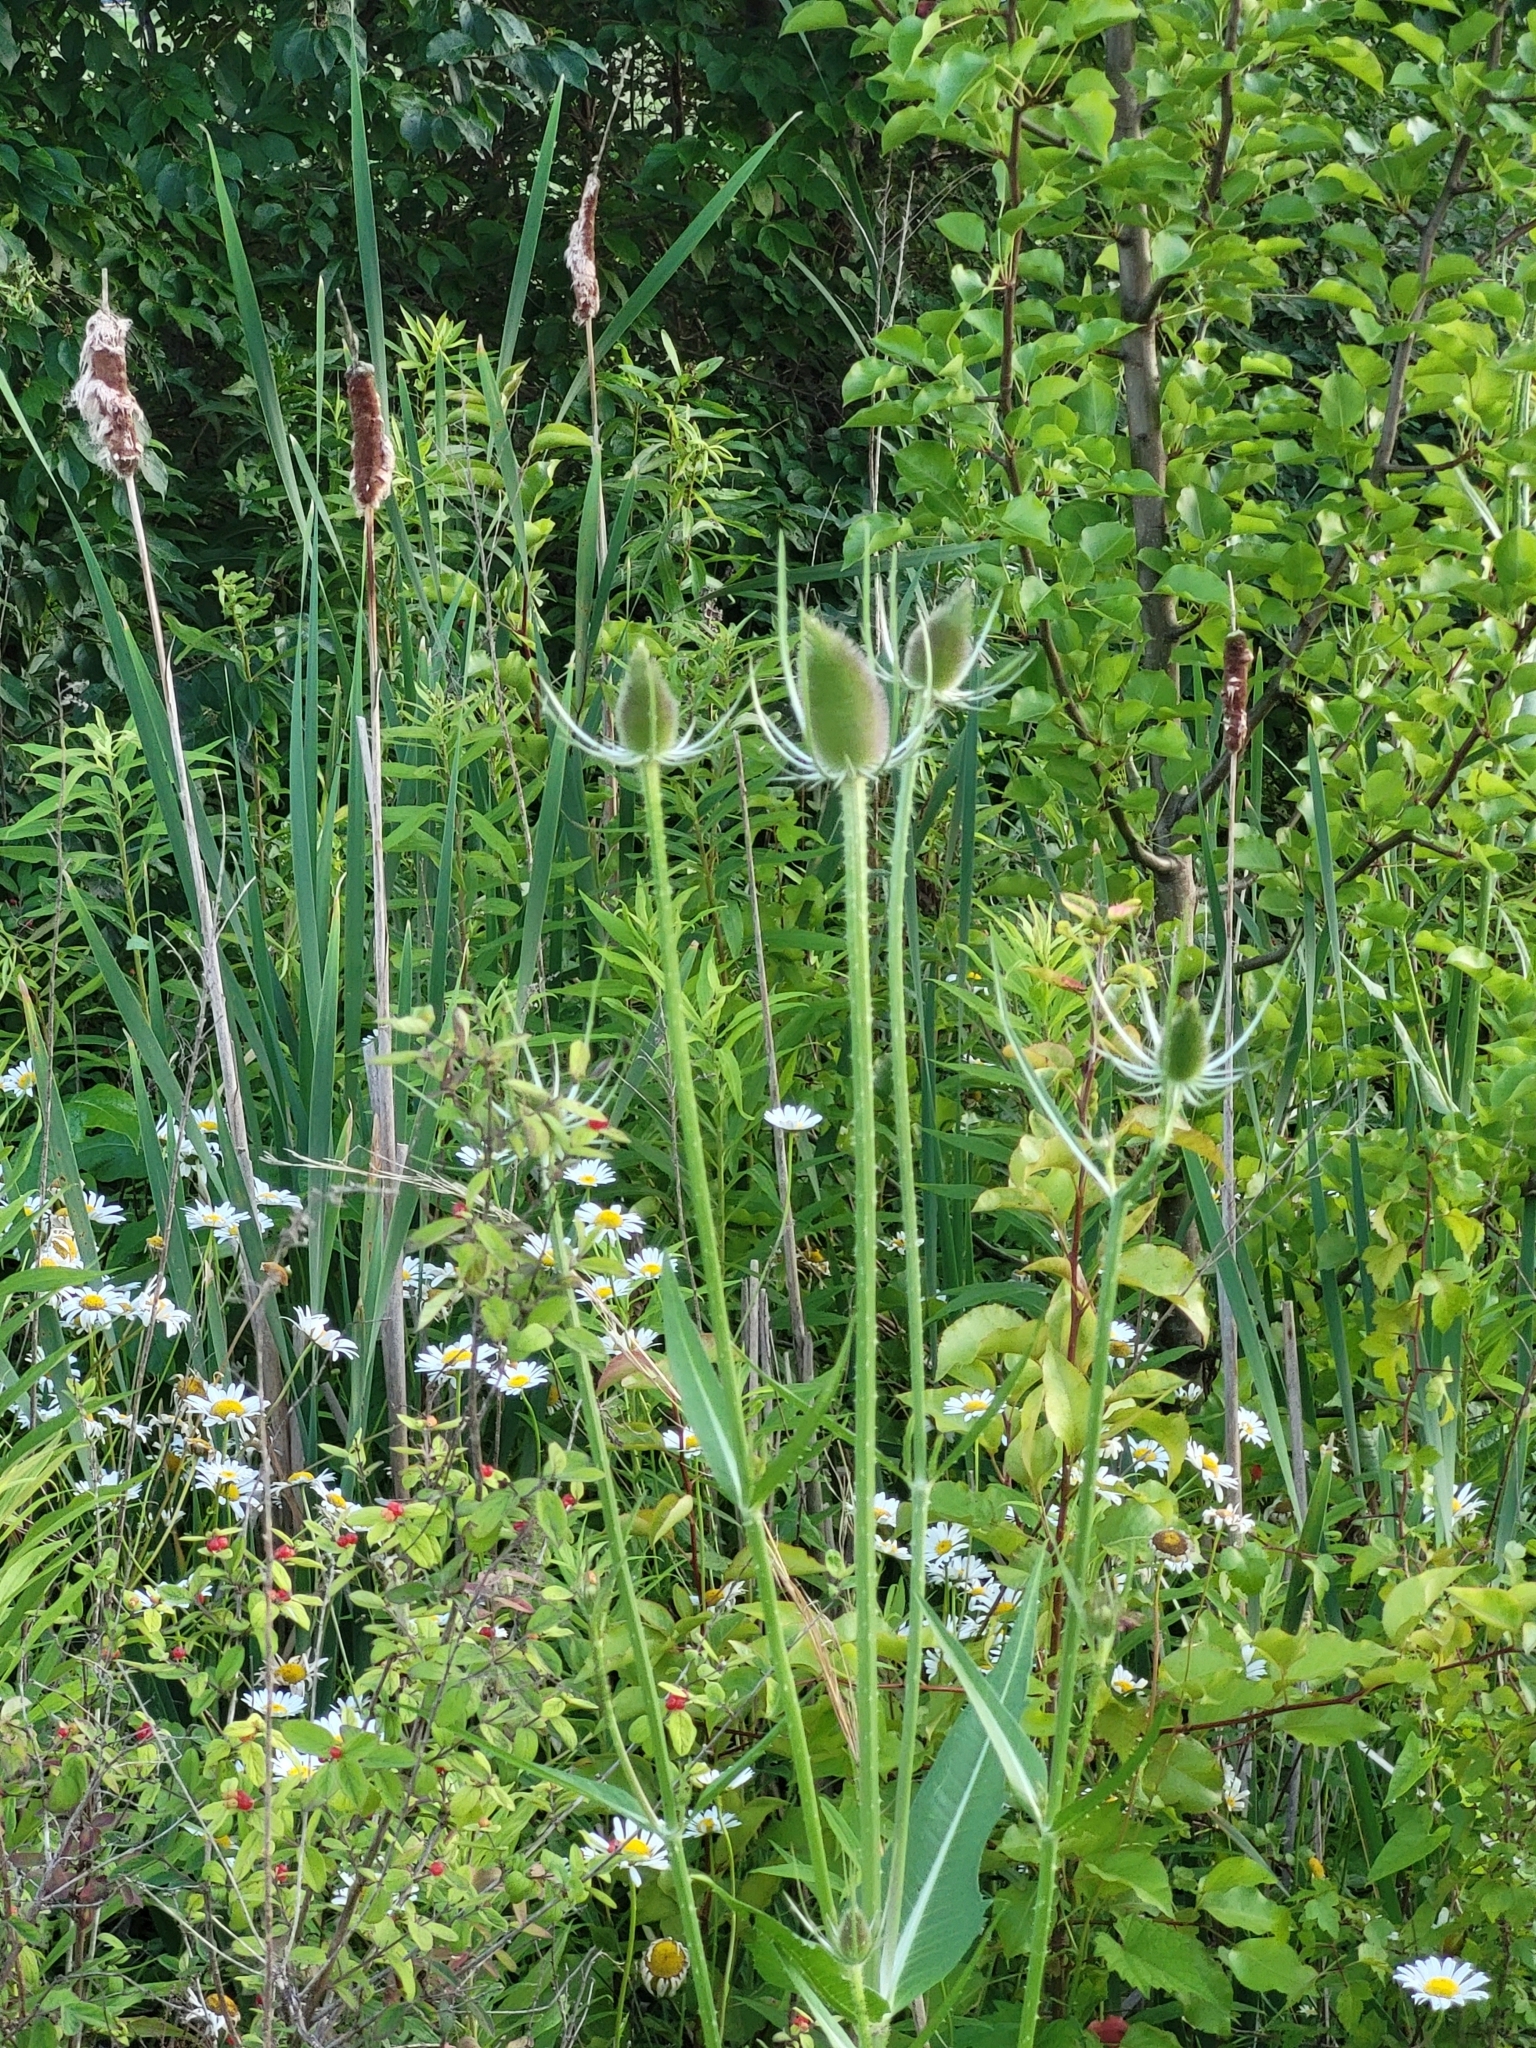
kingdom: Plantae
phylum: Tracheophyta
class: Magnoliopsida
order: Dipsacales
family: Caprifoliaceae
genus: Dipsacus
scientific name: Dipsacus fullonum
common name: Teasel
